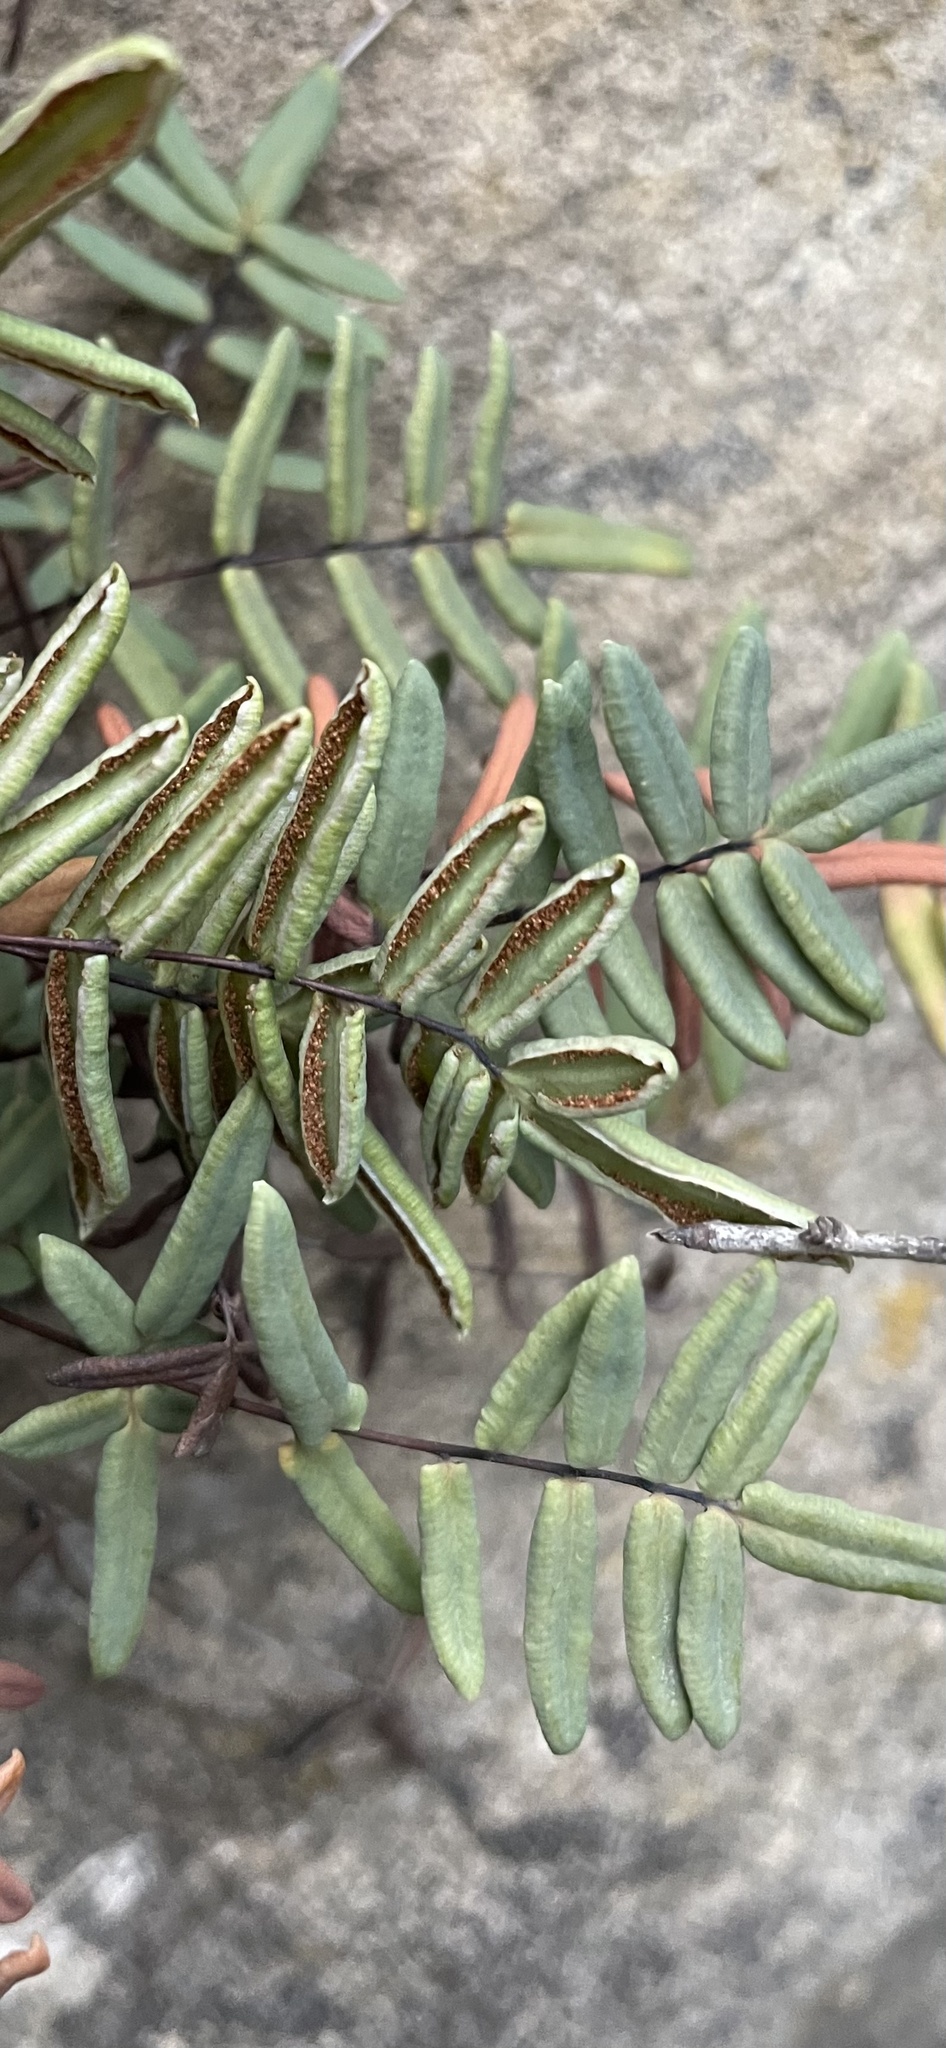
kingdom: Plantae
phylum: Tracheophyta
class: Polypodiopsida
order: Polypodiales
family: Pteridaceae
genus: Pellaea
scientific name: Pellaea glabella
